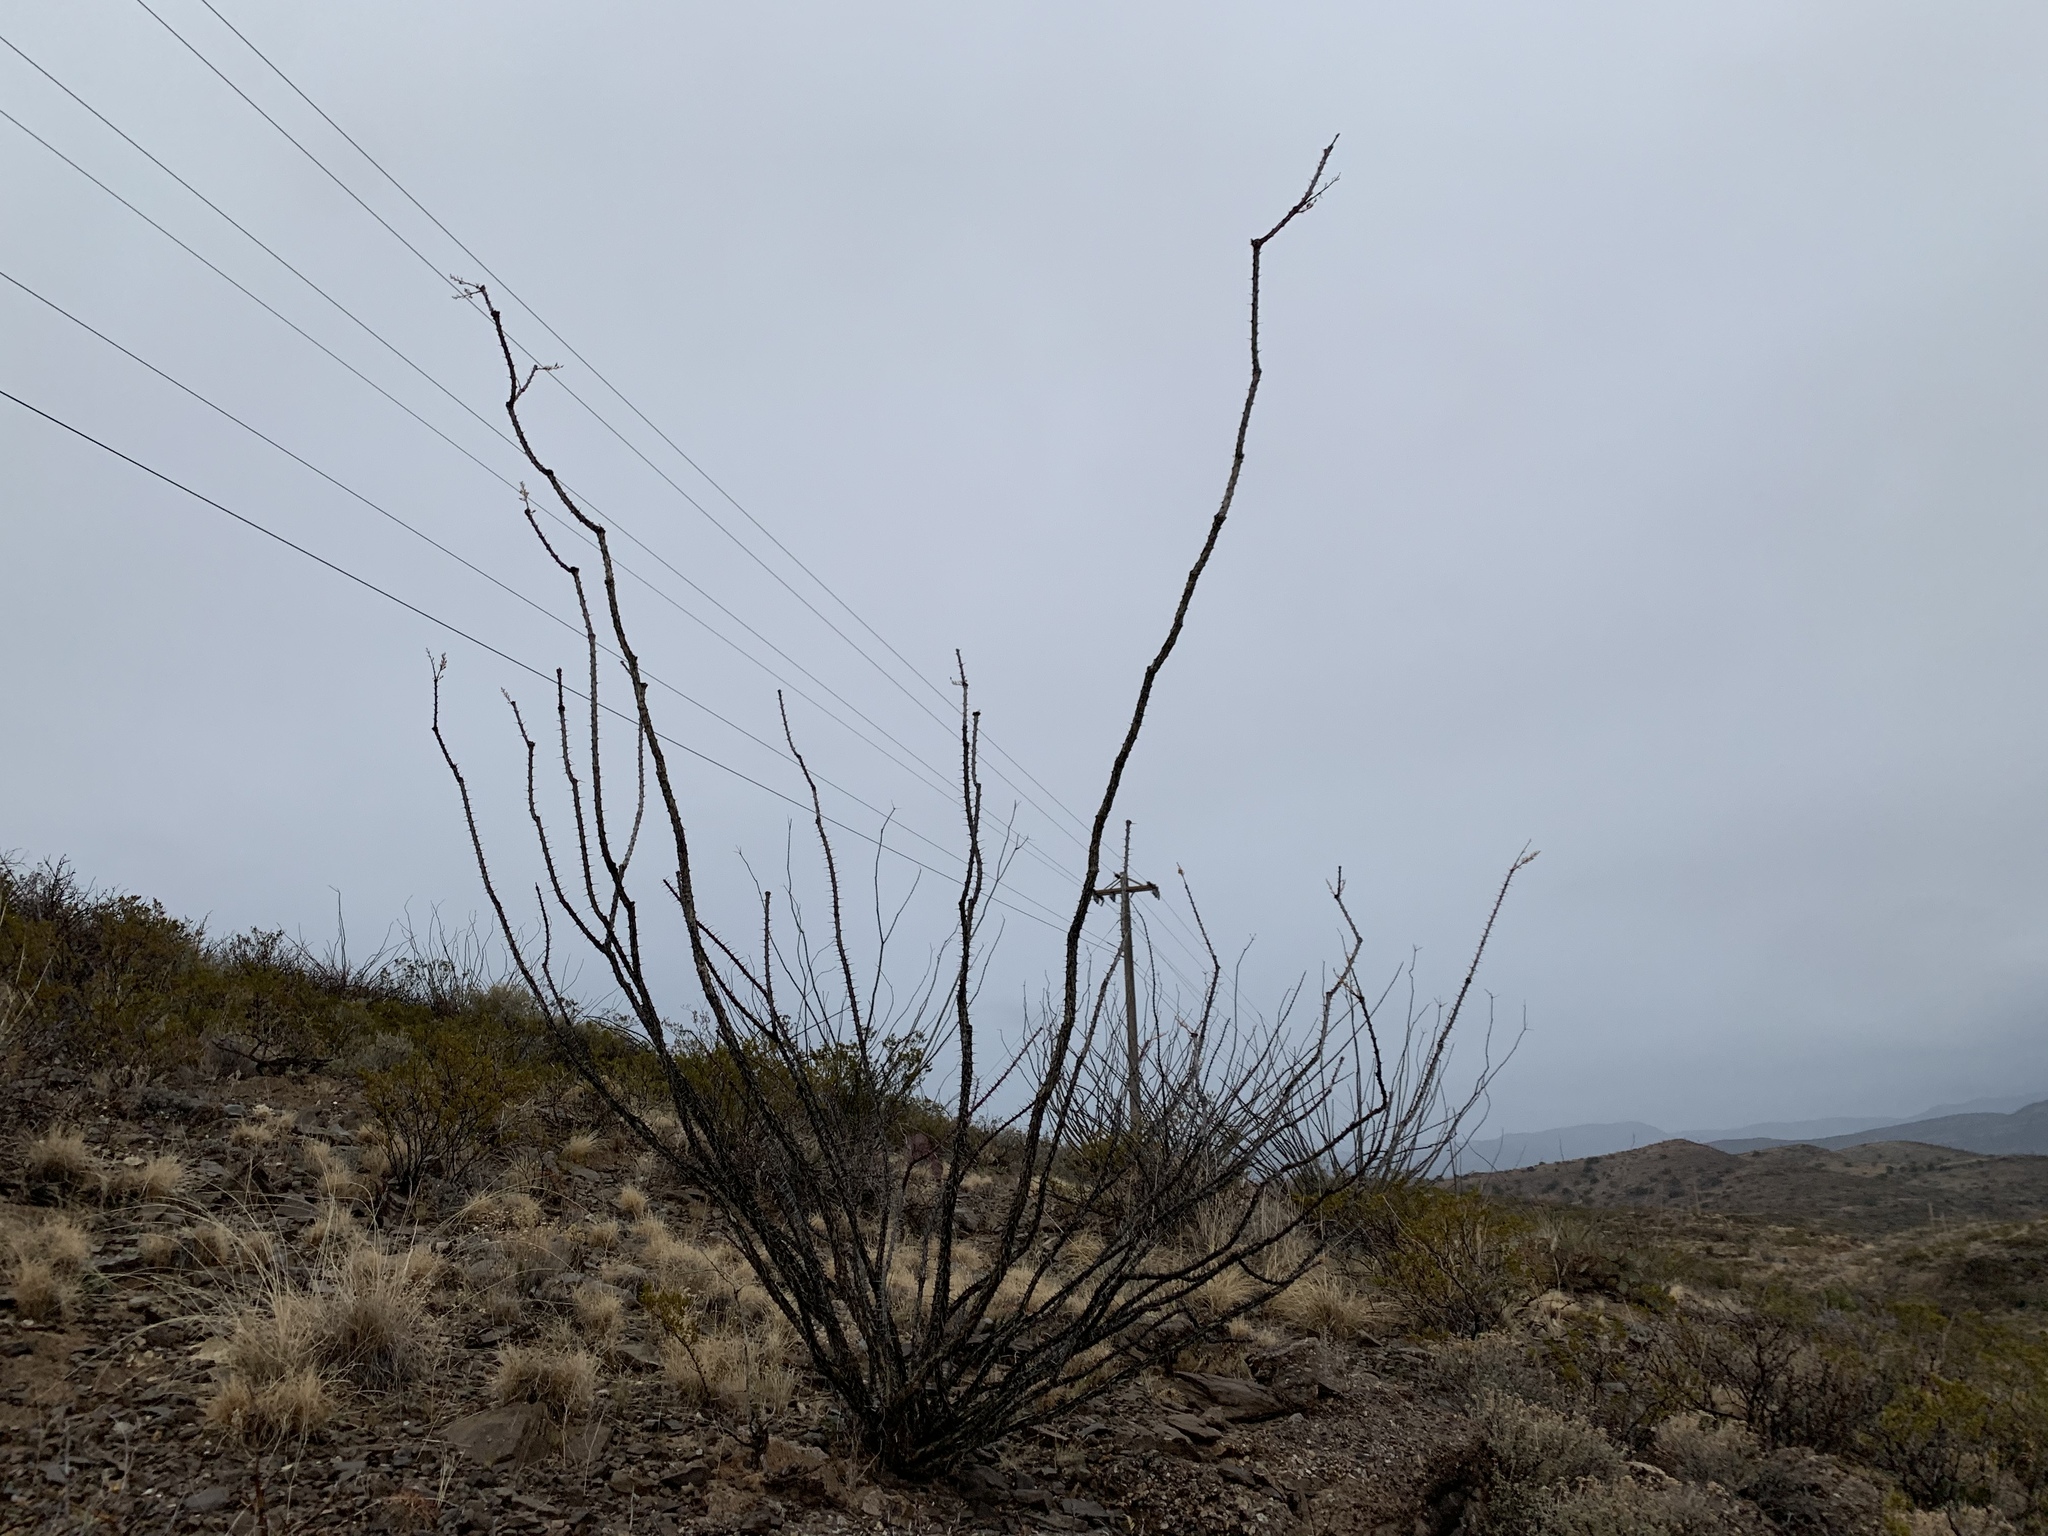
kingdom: Plantae
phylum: Tracheophyta
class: Magnoliopsida
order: Ericales
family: Fouquieriaceae
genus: Fouquieria
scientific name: Fouquieria splendens
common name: Vine-cactus
